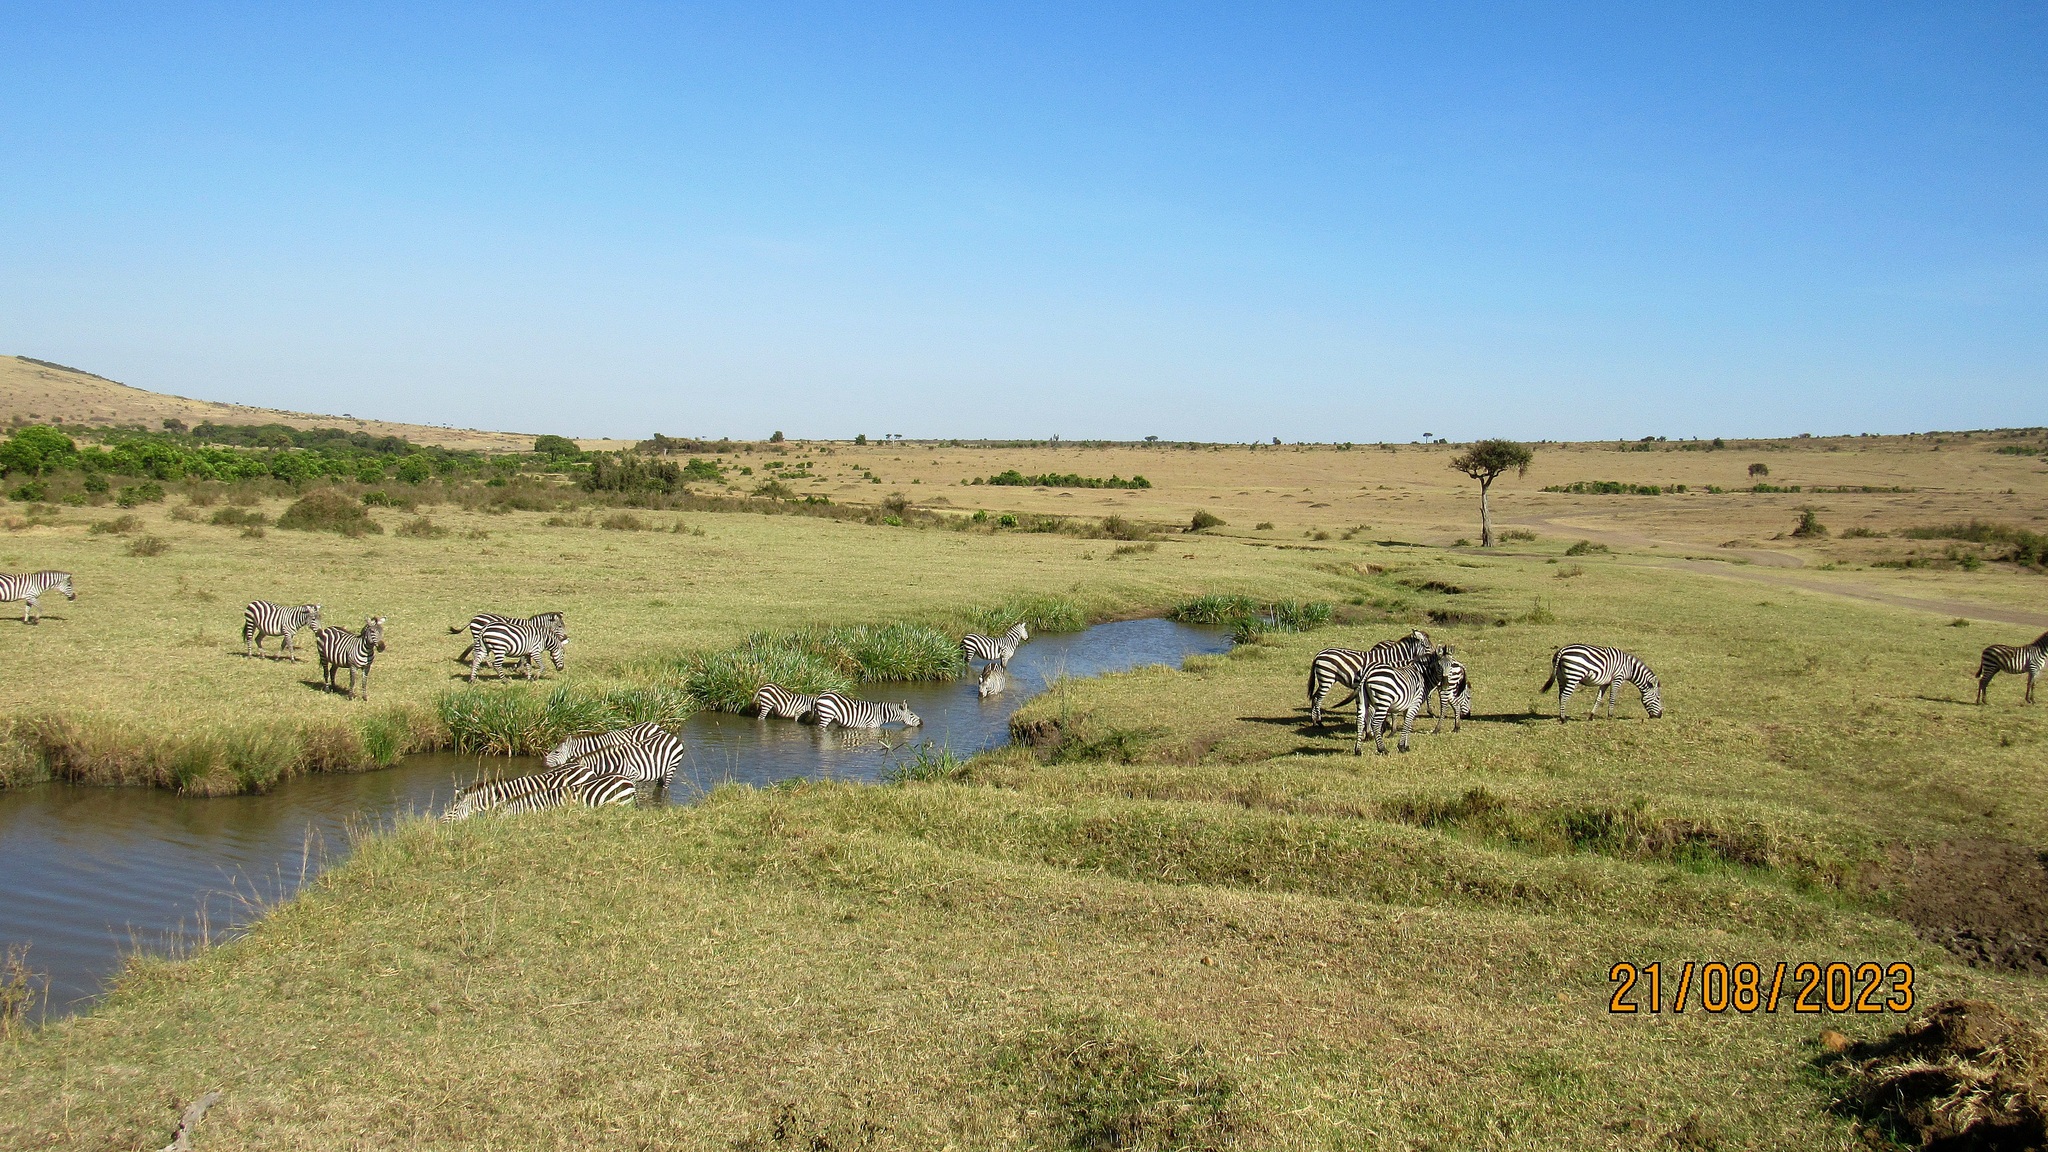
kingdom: Animalia
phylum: Chordata
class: Mammalia
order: Perissodactyla
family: Equidae
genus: Equus
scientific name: Equus quagga
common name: Plains zebra
